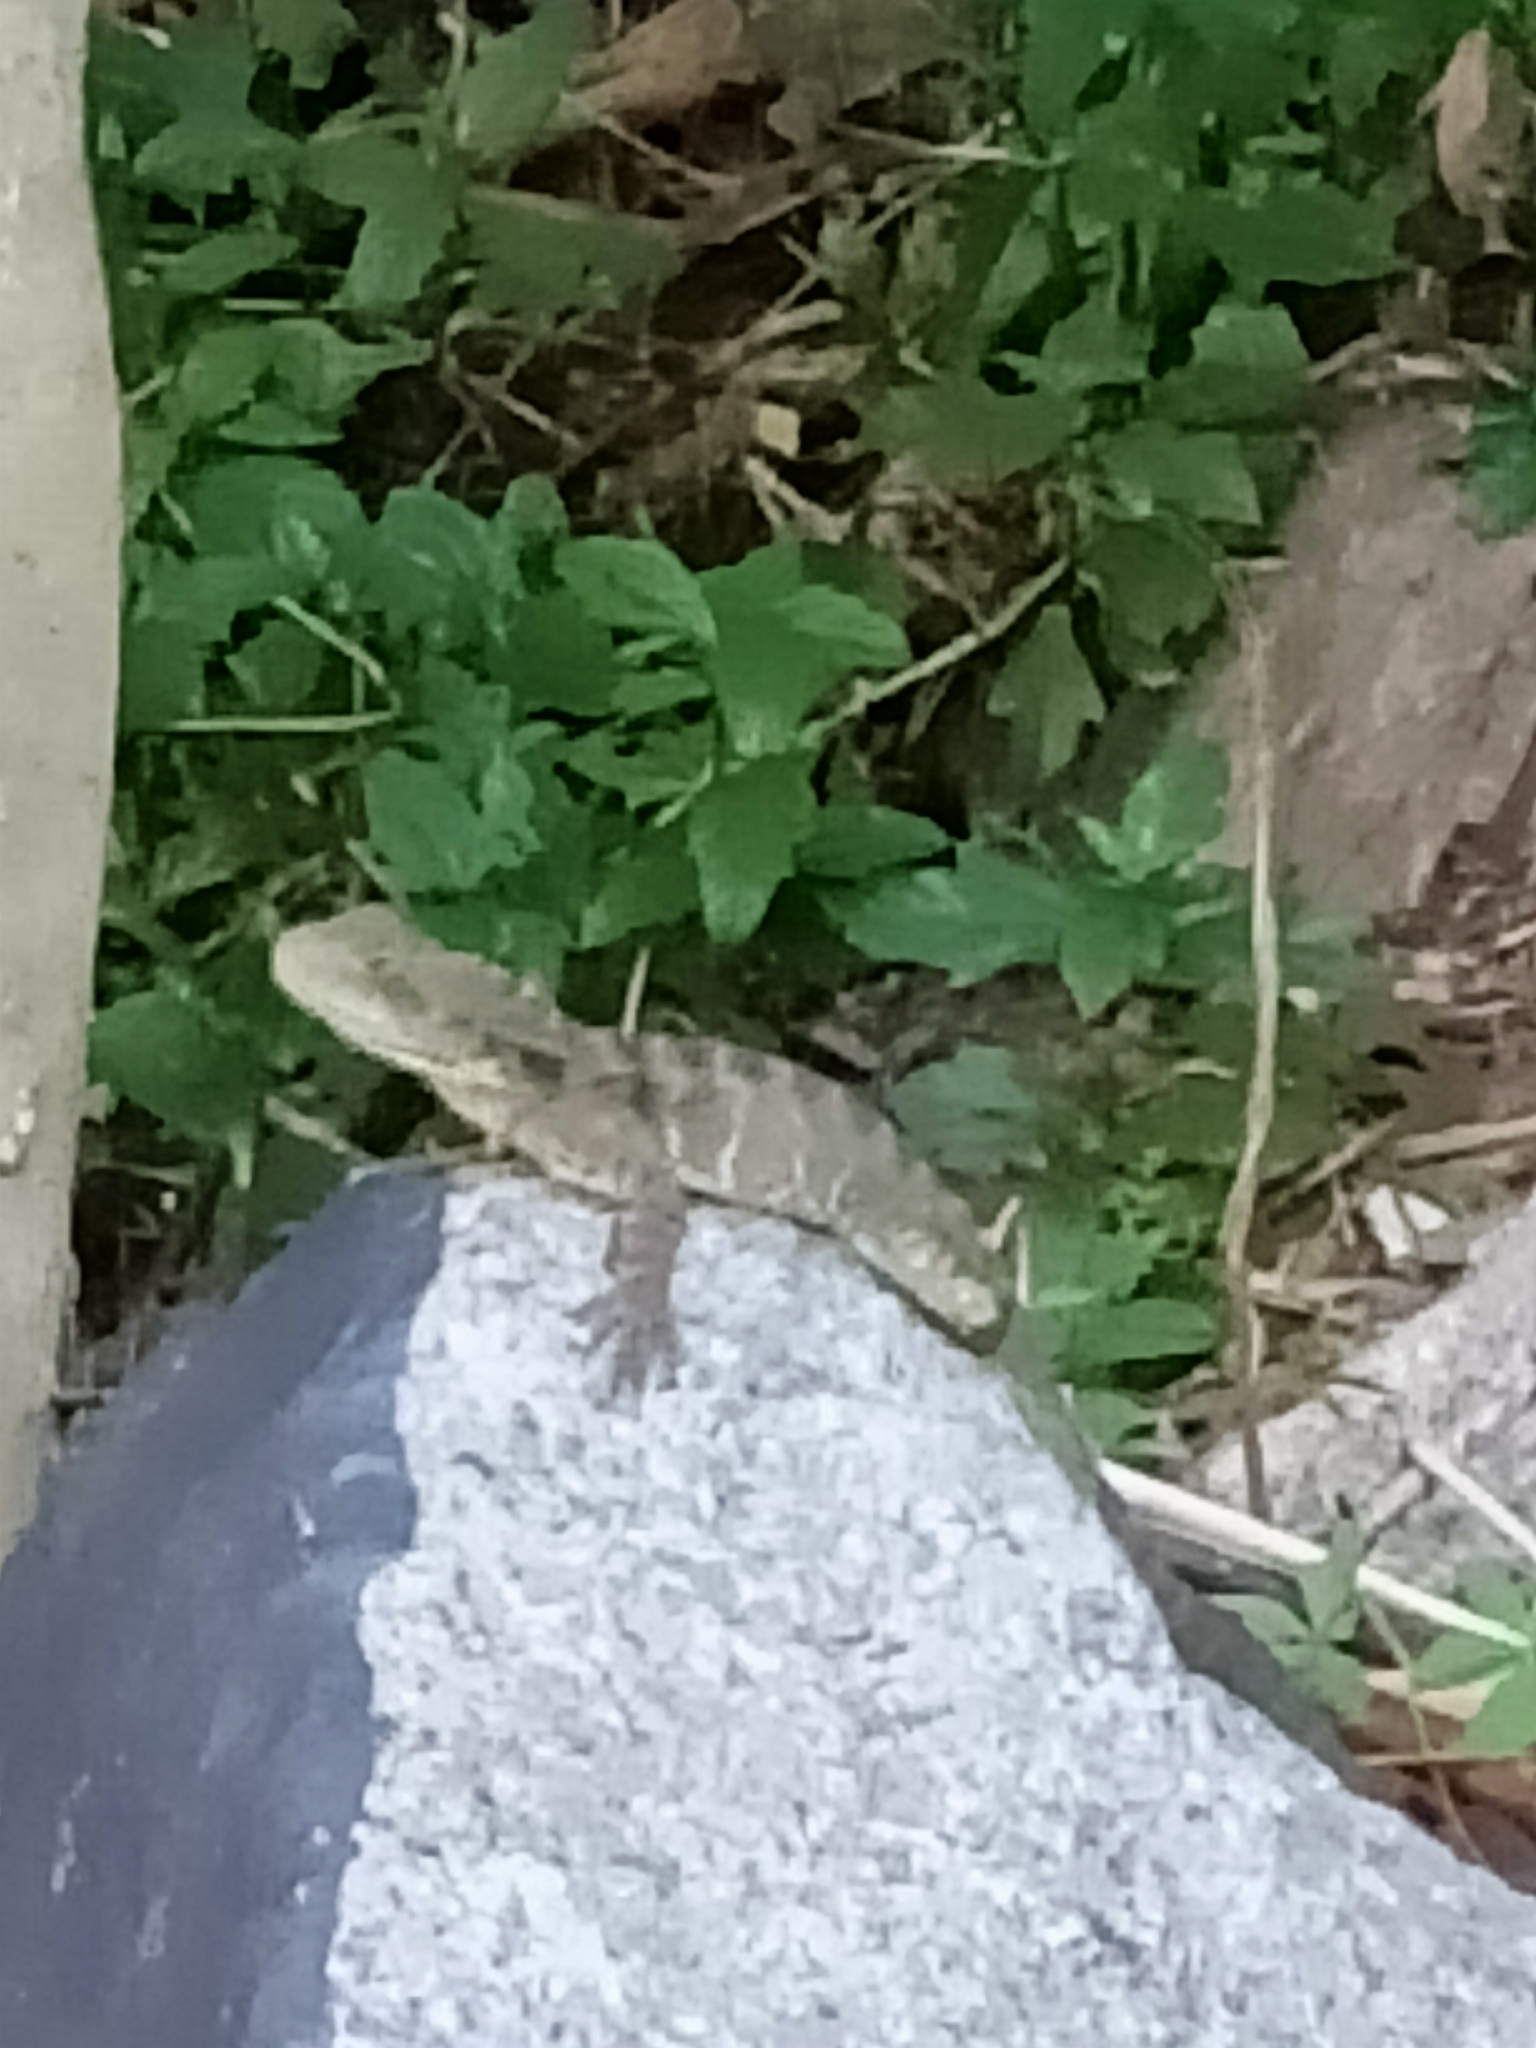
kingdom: Animalia
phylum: Chordata
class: Squamata
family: Agamidae
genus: Intellagama
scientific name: Intellagama lesueurii
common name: Eastern water dragon
